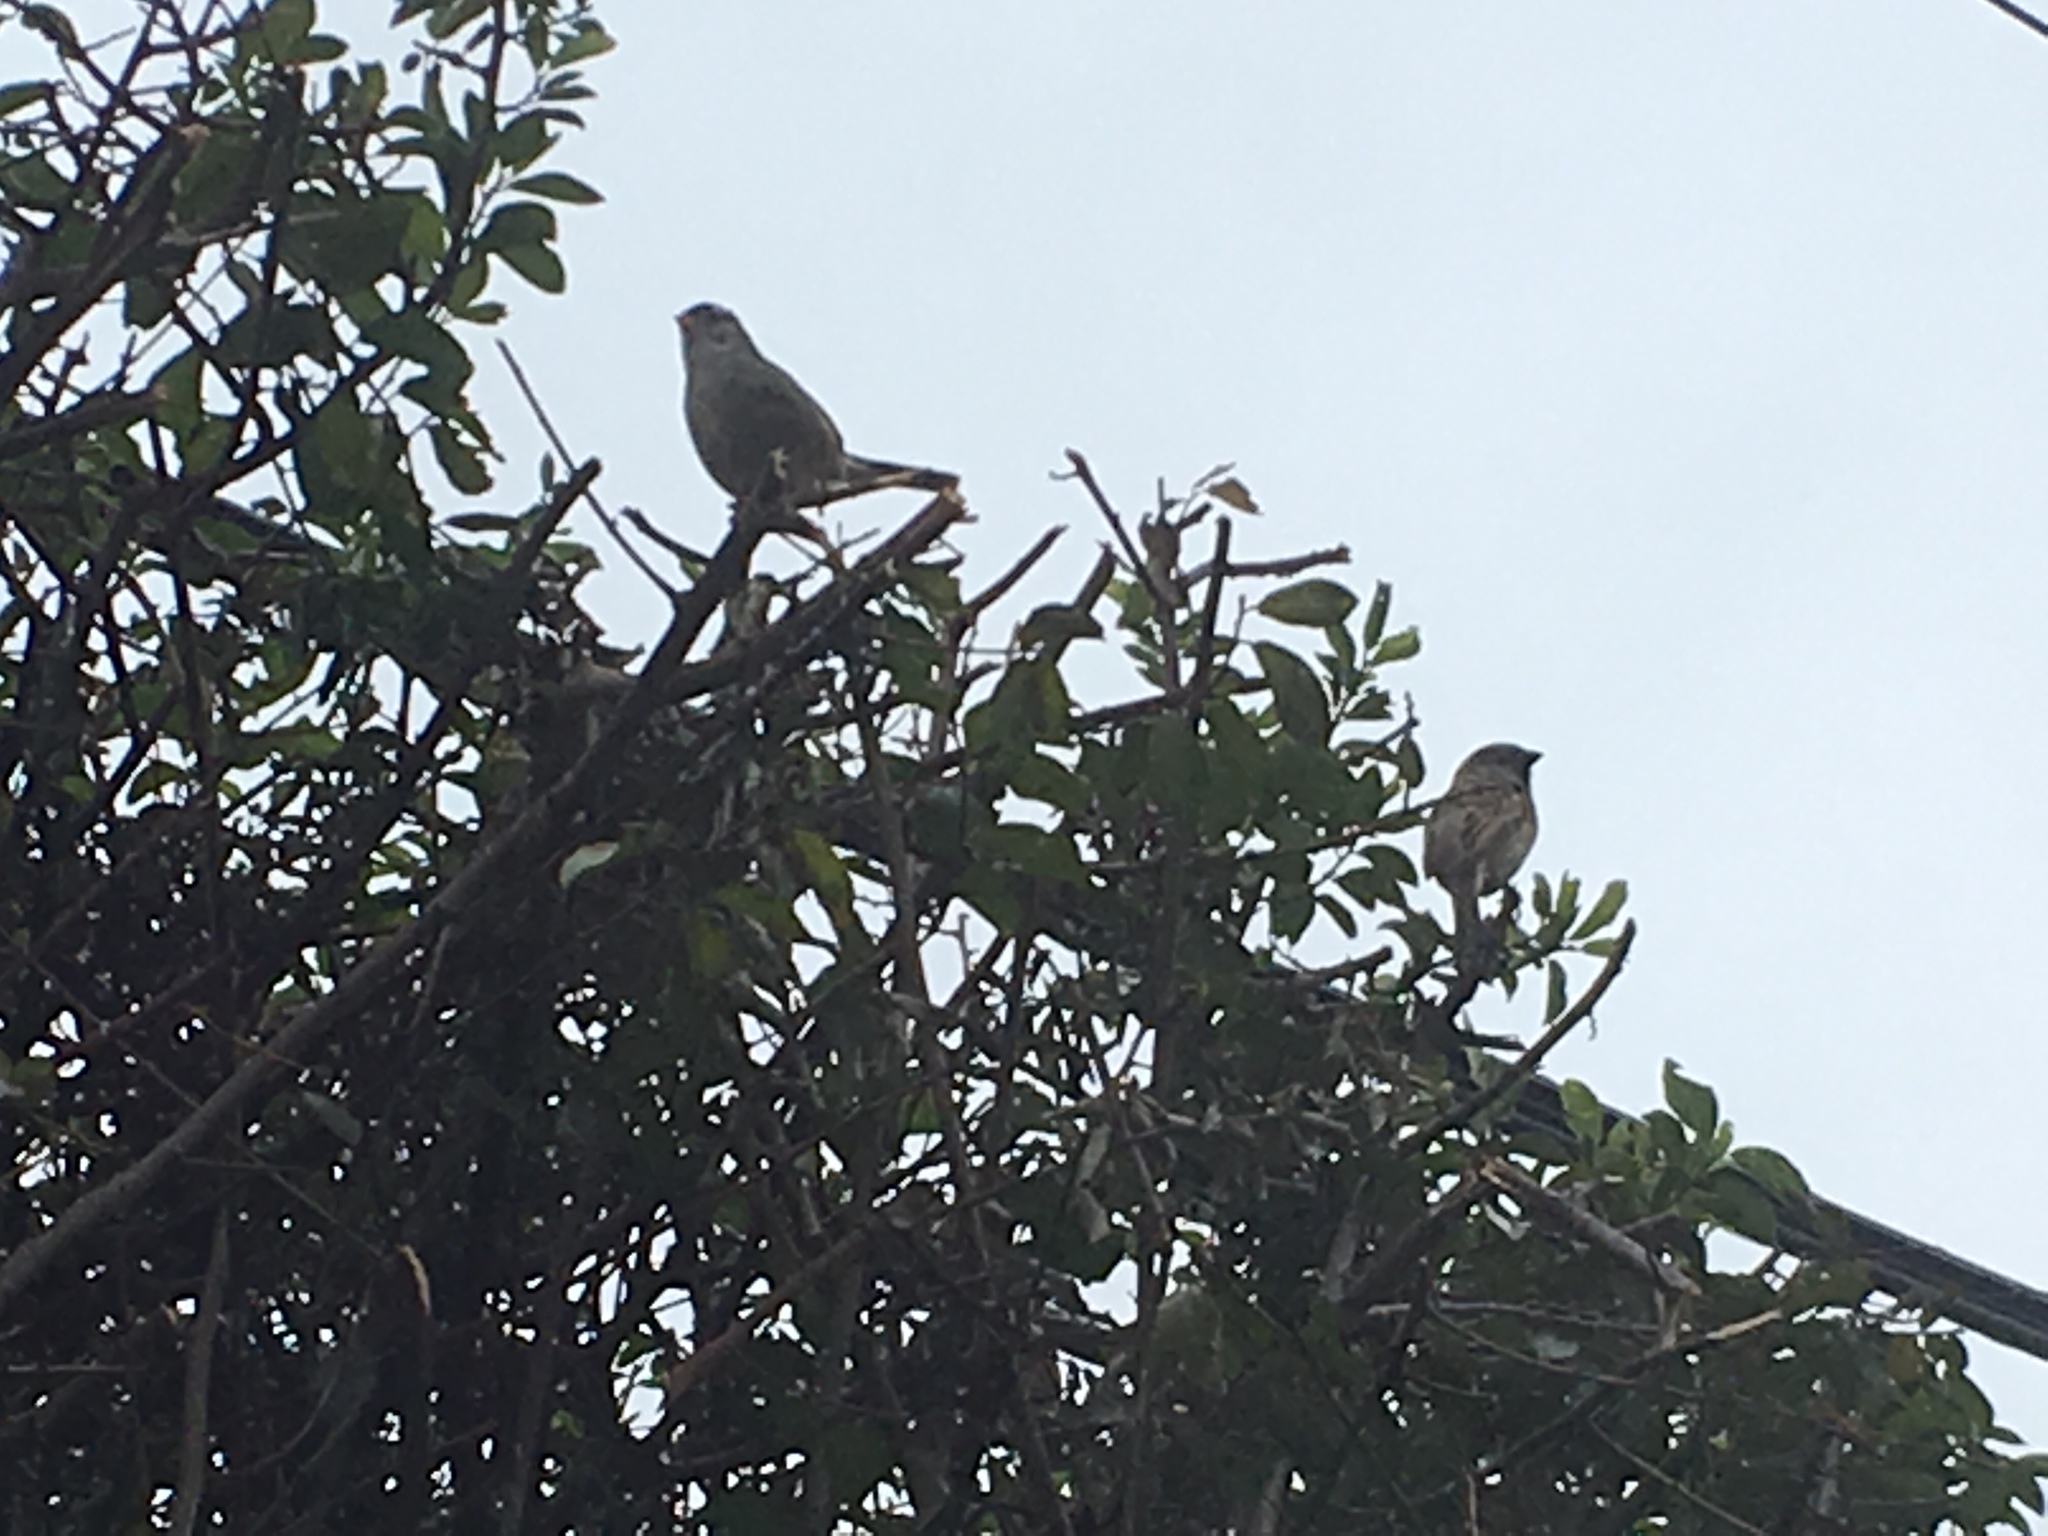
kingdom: Animalia
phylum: Chordata
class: Aves
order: Passeriformes
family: Passerellidae
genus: Zonotrichia
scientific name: Zonotrichia leucophrys
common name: White-crowned sparrow
